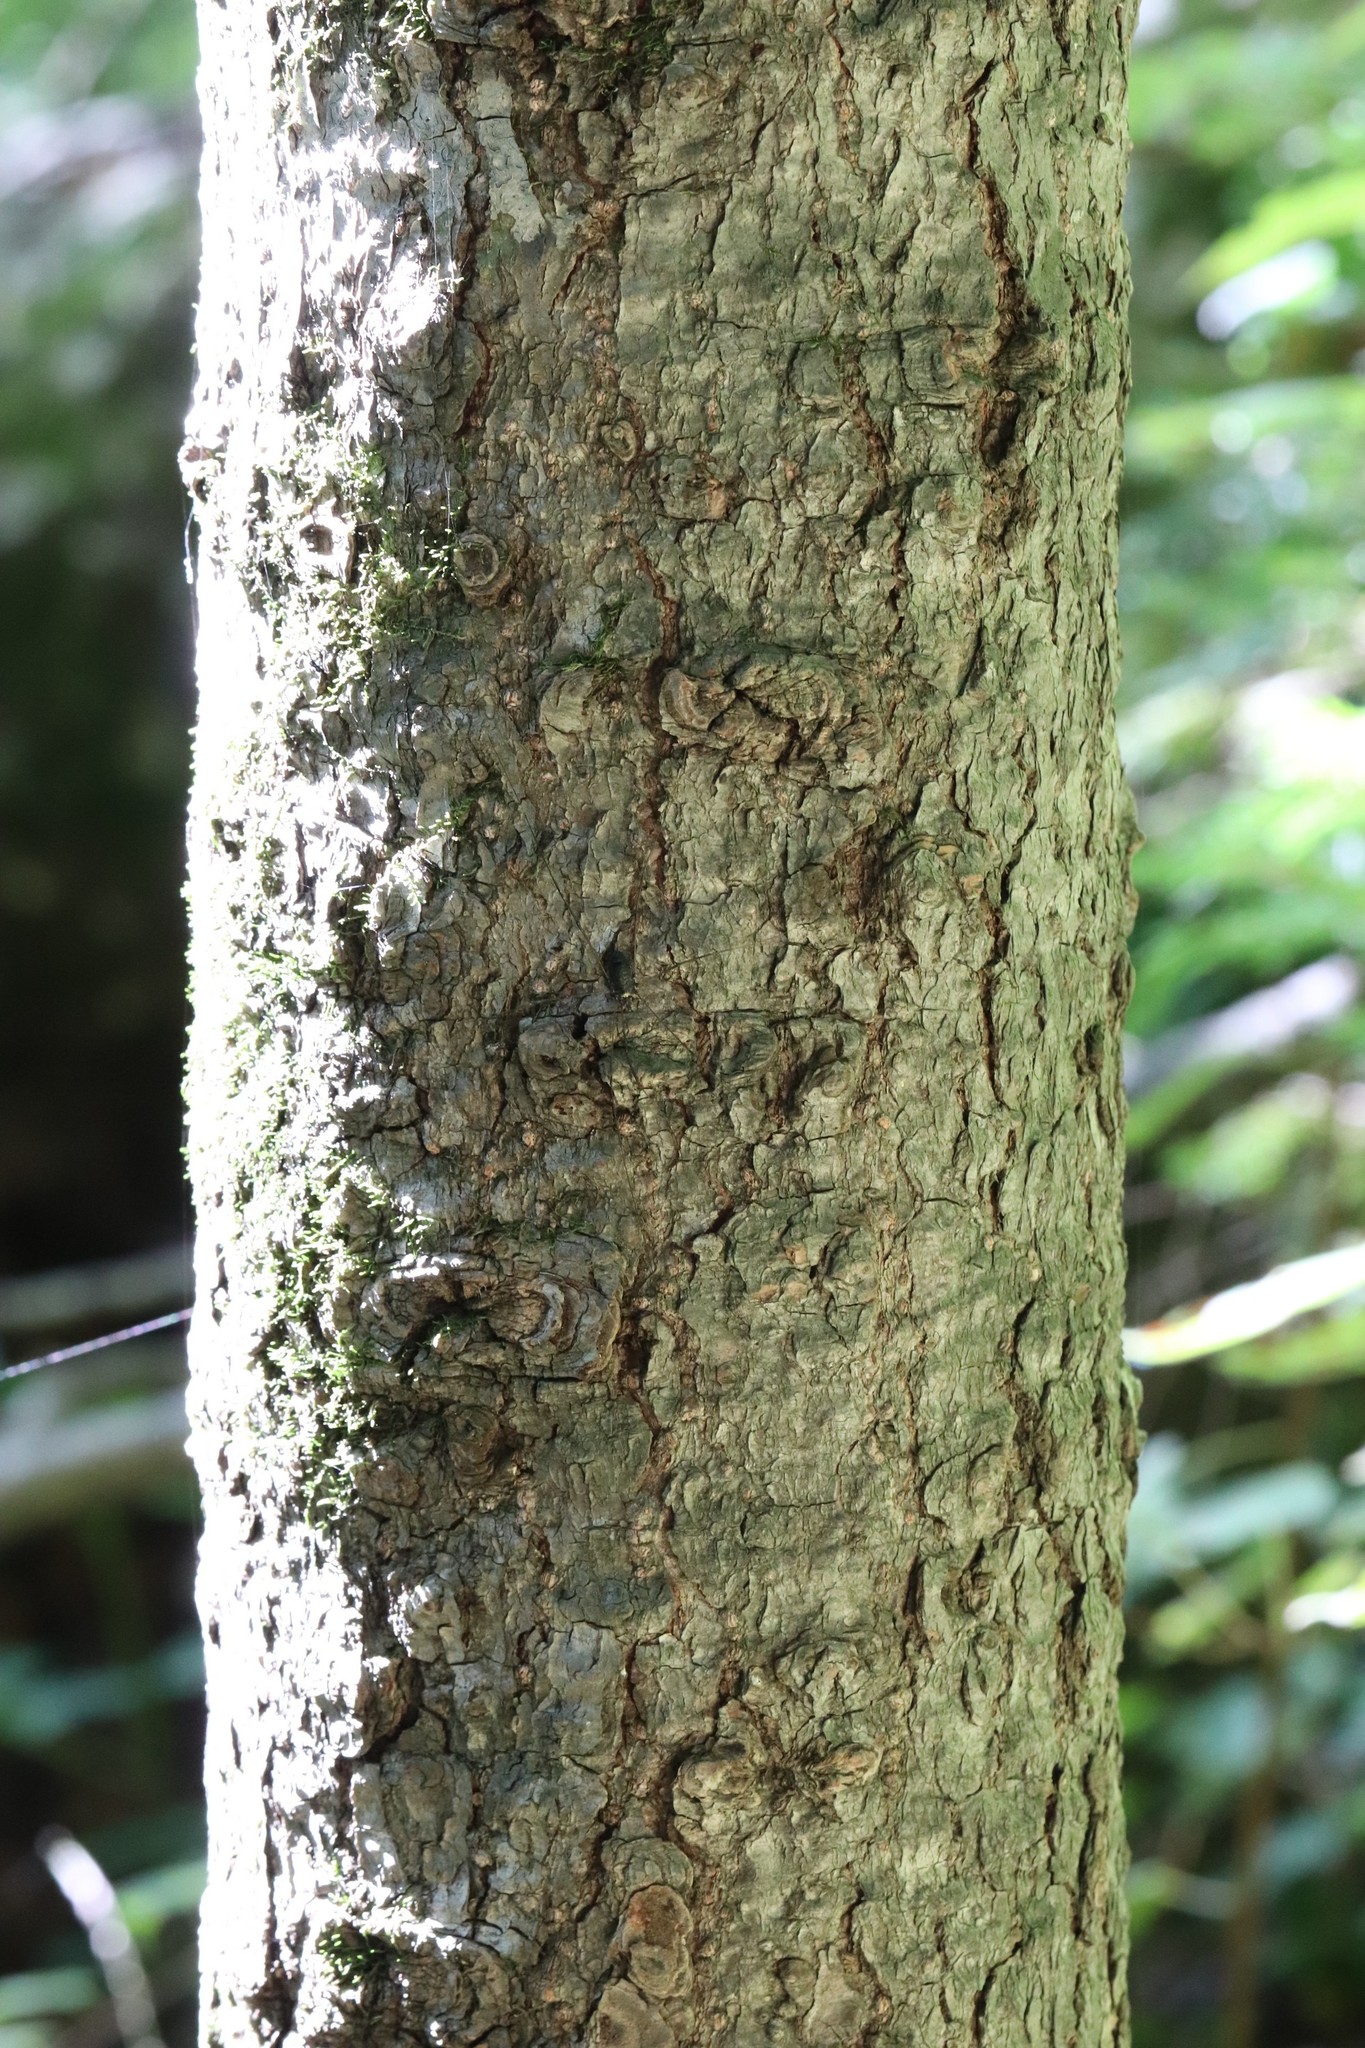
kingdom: Plantae
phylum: Tracheophyta
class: Pinopsida
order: Pinales
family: Pinaceae
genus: Abies
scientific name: Abies nephrolepis
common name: Hinggan fir
